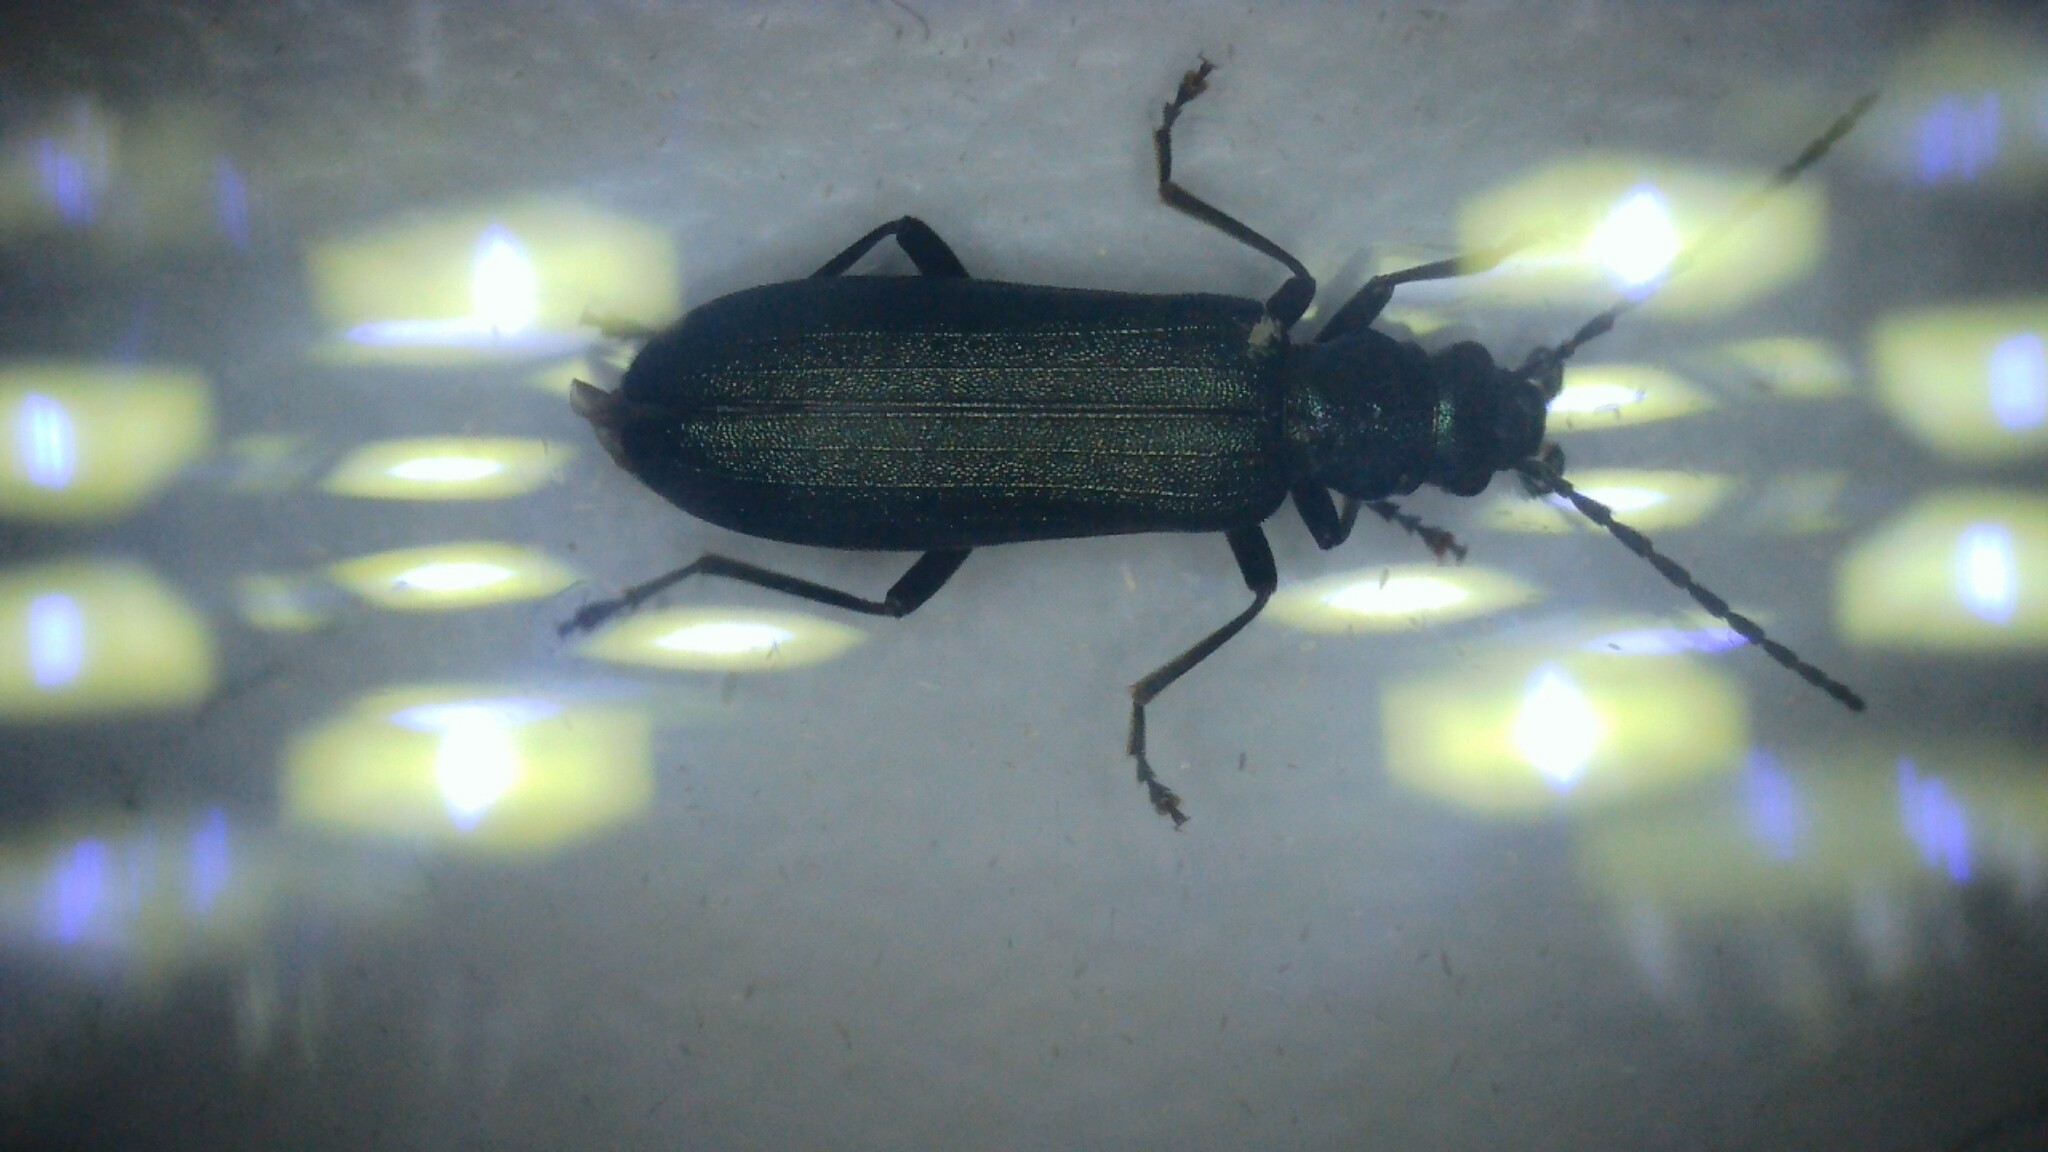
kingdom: Animalia
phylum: Arthropoda
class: Insecta
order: Coleoptera
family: Oedemeridae
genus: Ischnomera
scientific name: Ischnomera cyanea
